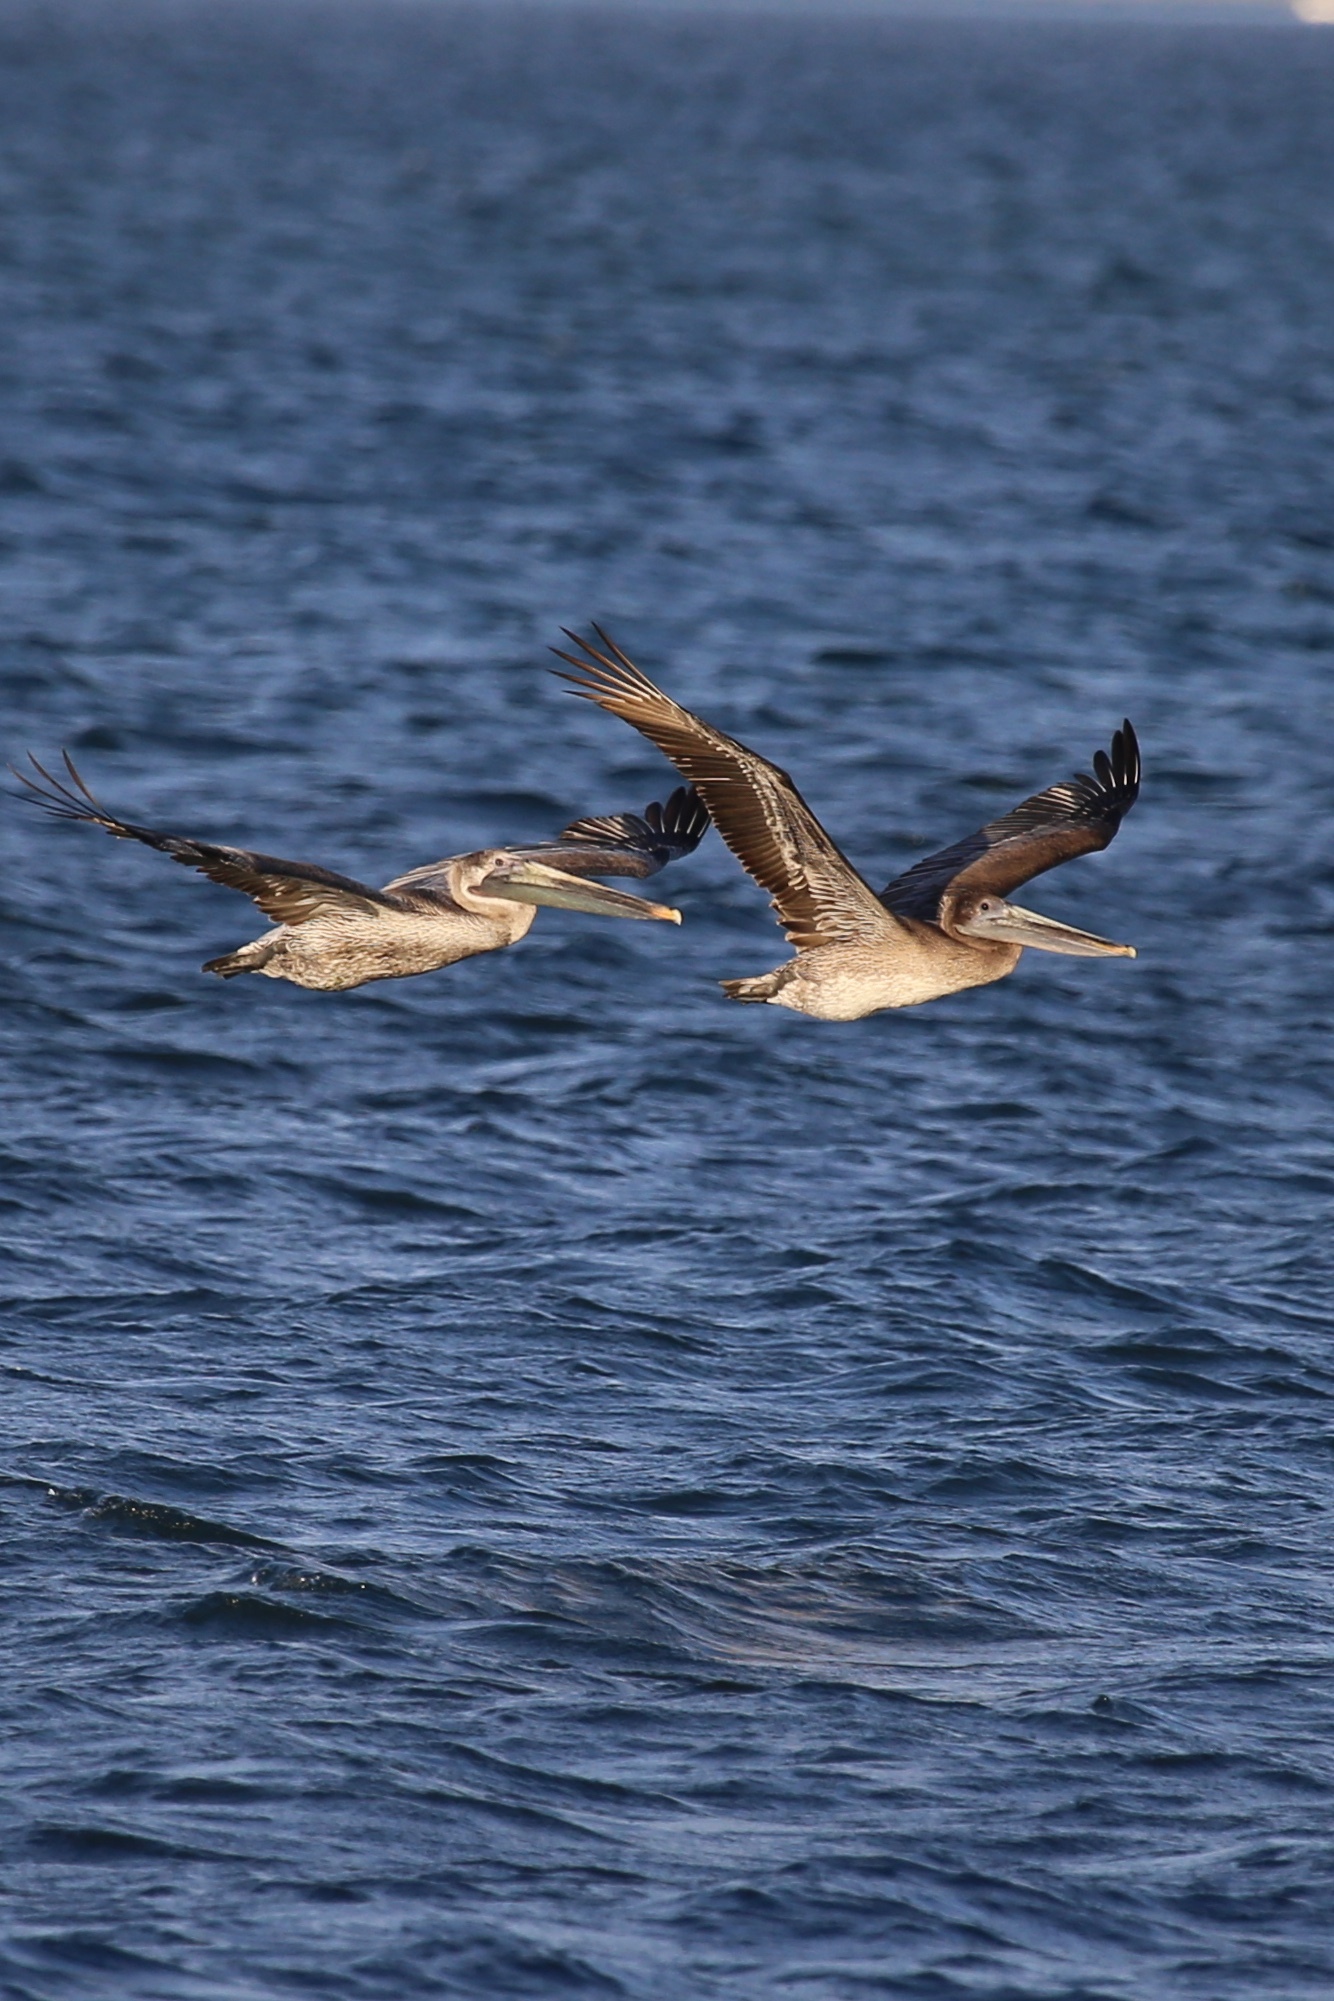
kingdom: Animalia
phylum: Chordata
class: Aves
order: Pelecaniformes
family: Pelecanidae
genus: Pelecanus
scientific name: Pelecanus occidentalis
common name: Brown pelican
